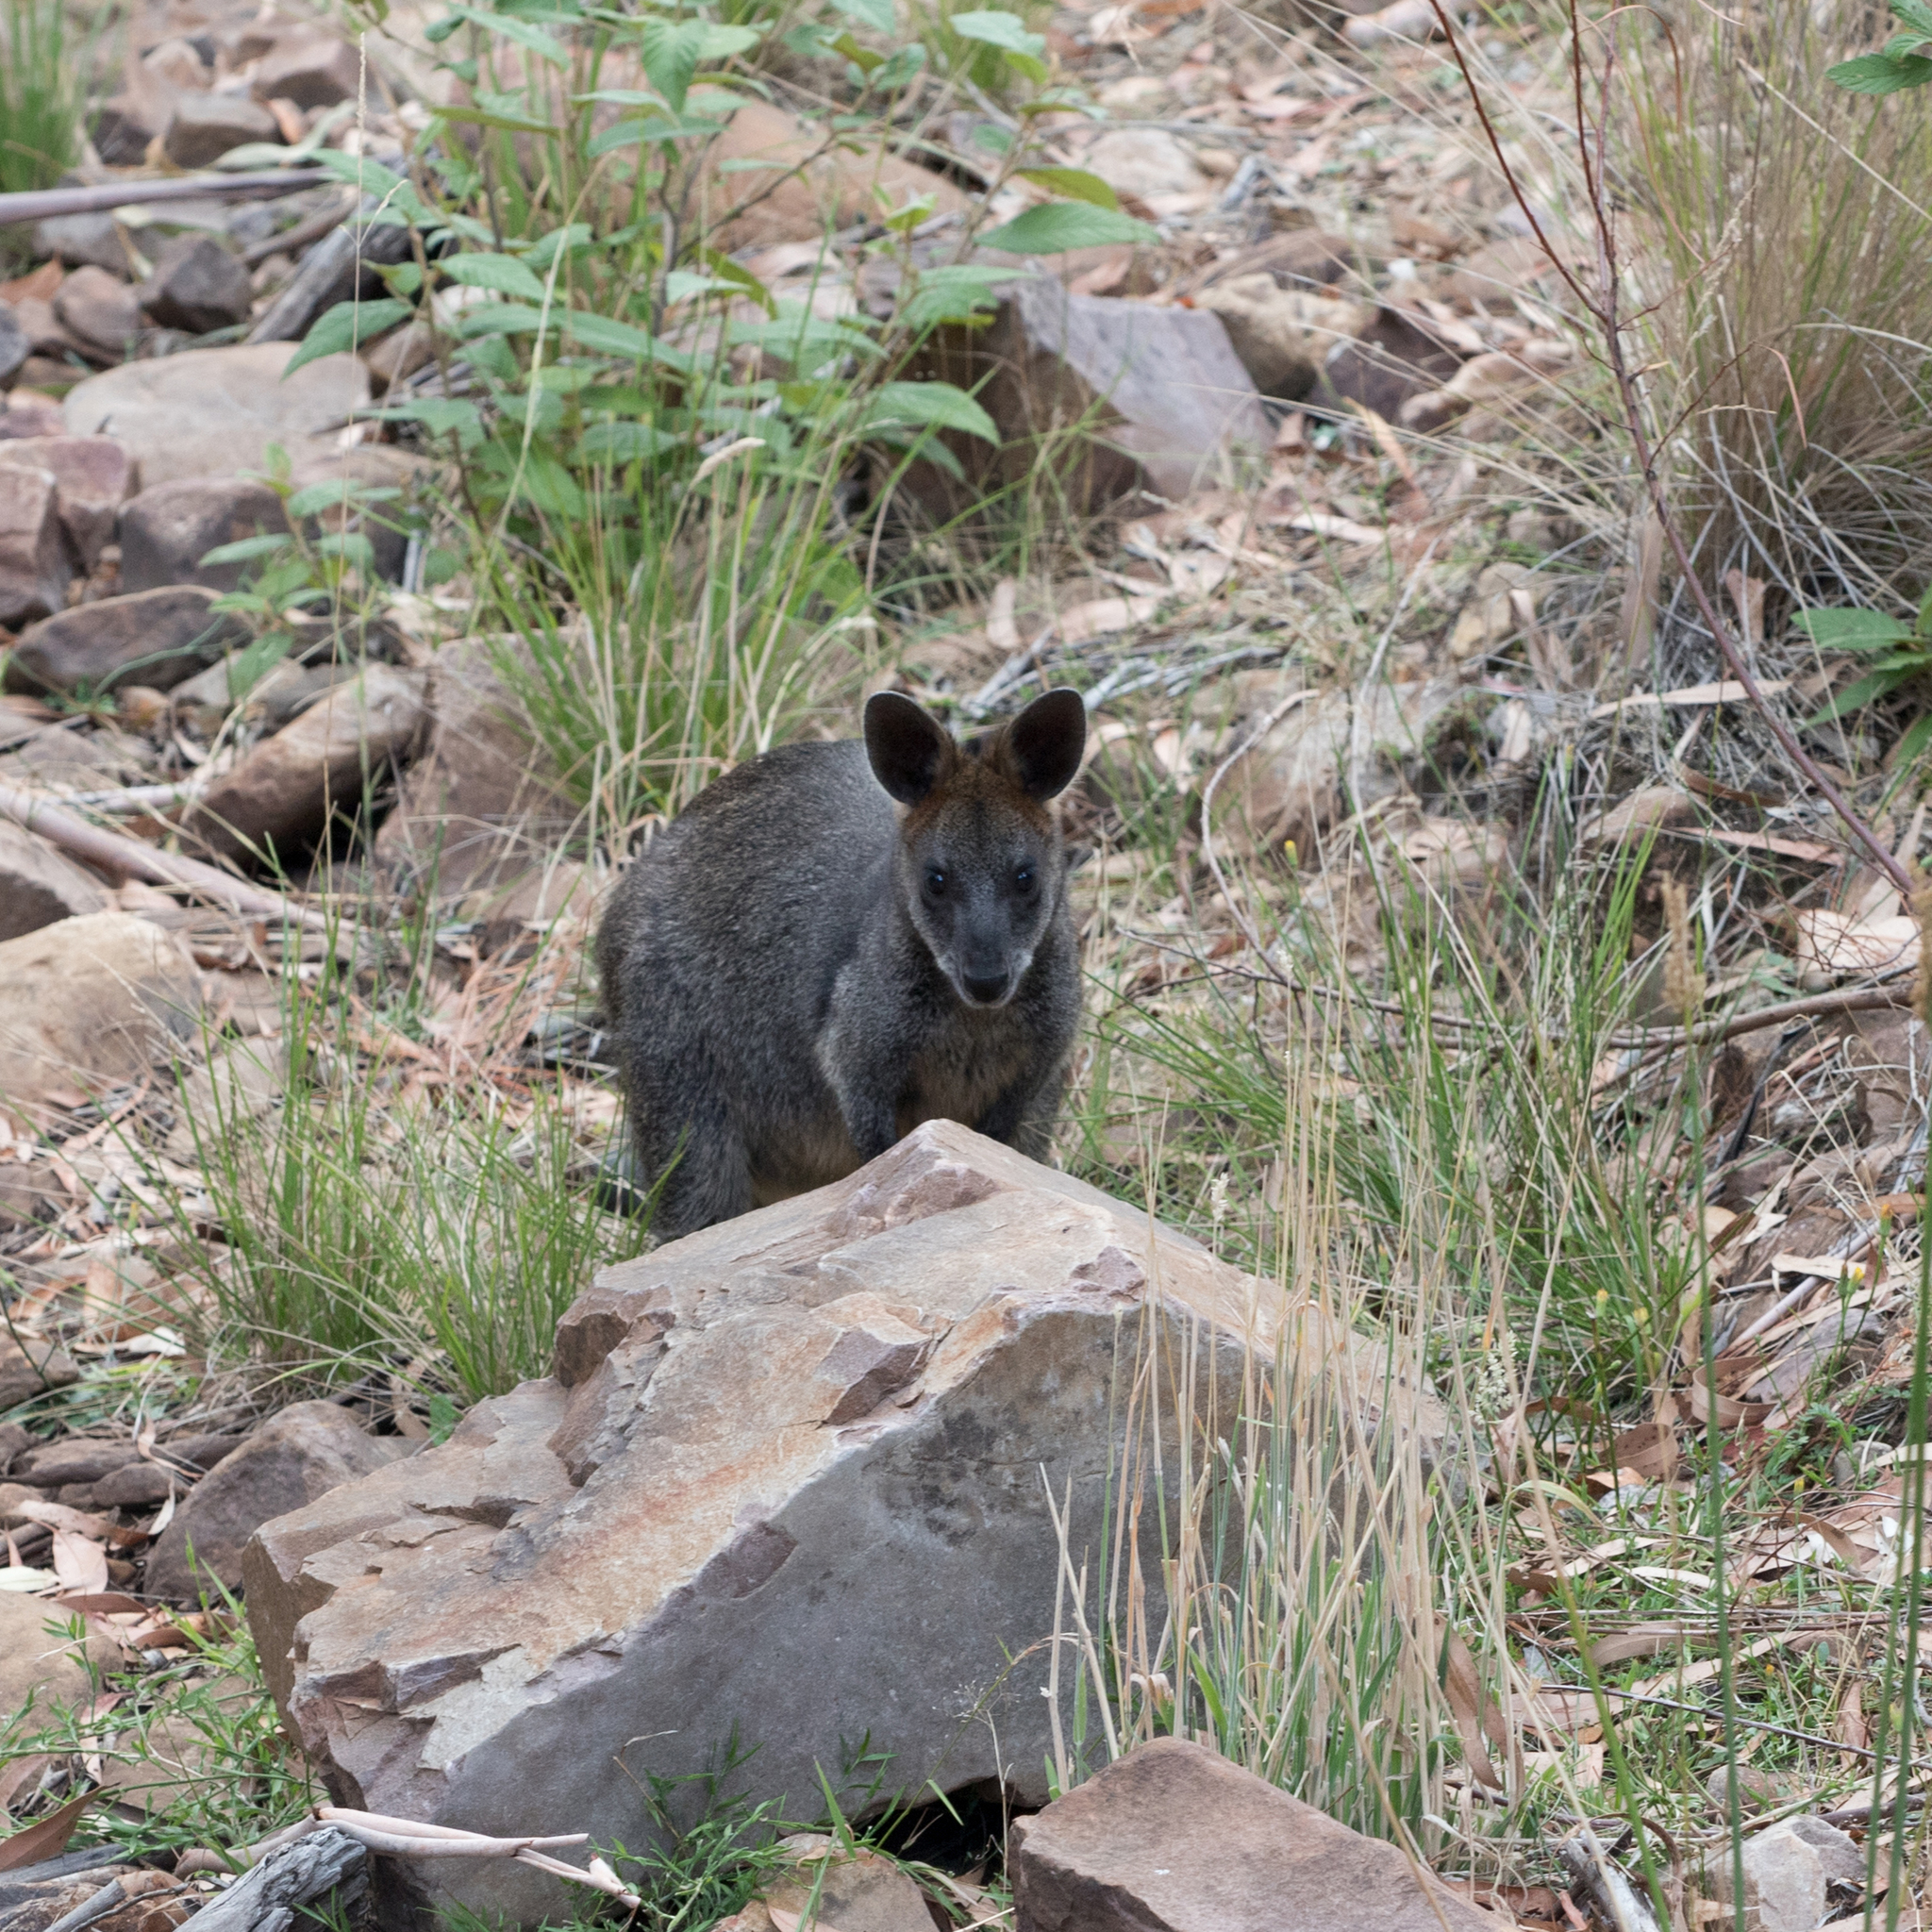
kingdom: Animalia
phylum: Chordata
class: Mammalia
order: Diprotodontia
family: Macropodidae
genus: Wallabia
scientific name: Wallabia bicolor
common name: Swamp wallaby
